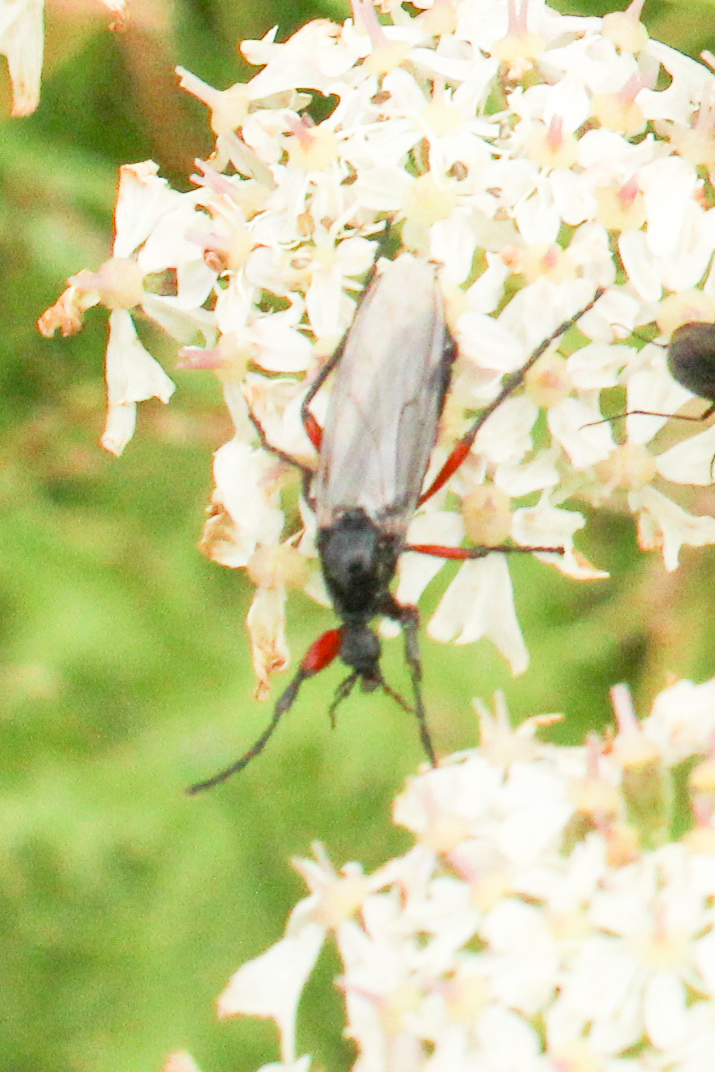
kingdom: Animalia
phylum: Arthropoda
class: Insecta
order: Diptera
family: Bibionidae
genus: Bibio
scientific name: Bibio pomonae
